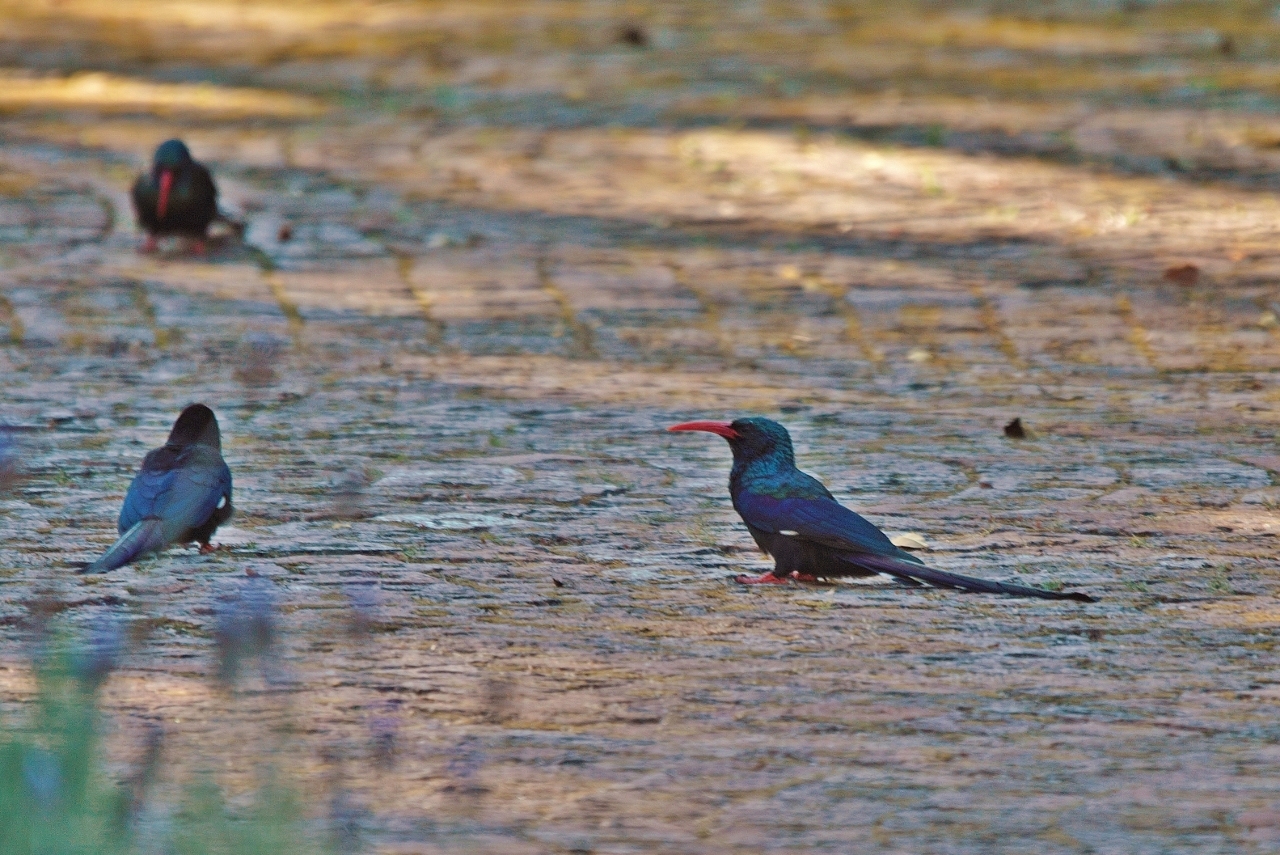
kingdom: Animalia
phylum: Chordata
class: Aves
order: Bucerotiformes
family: Phoeniculidae
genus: Phoeniculus
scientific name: Phoeniculus purpureus
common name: Green woodhoopoe
